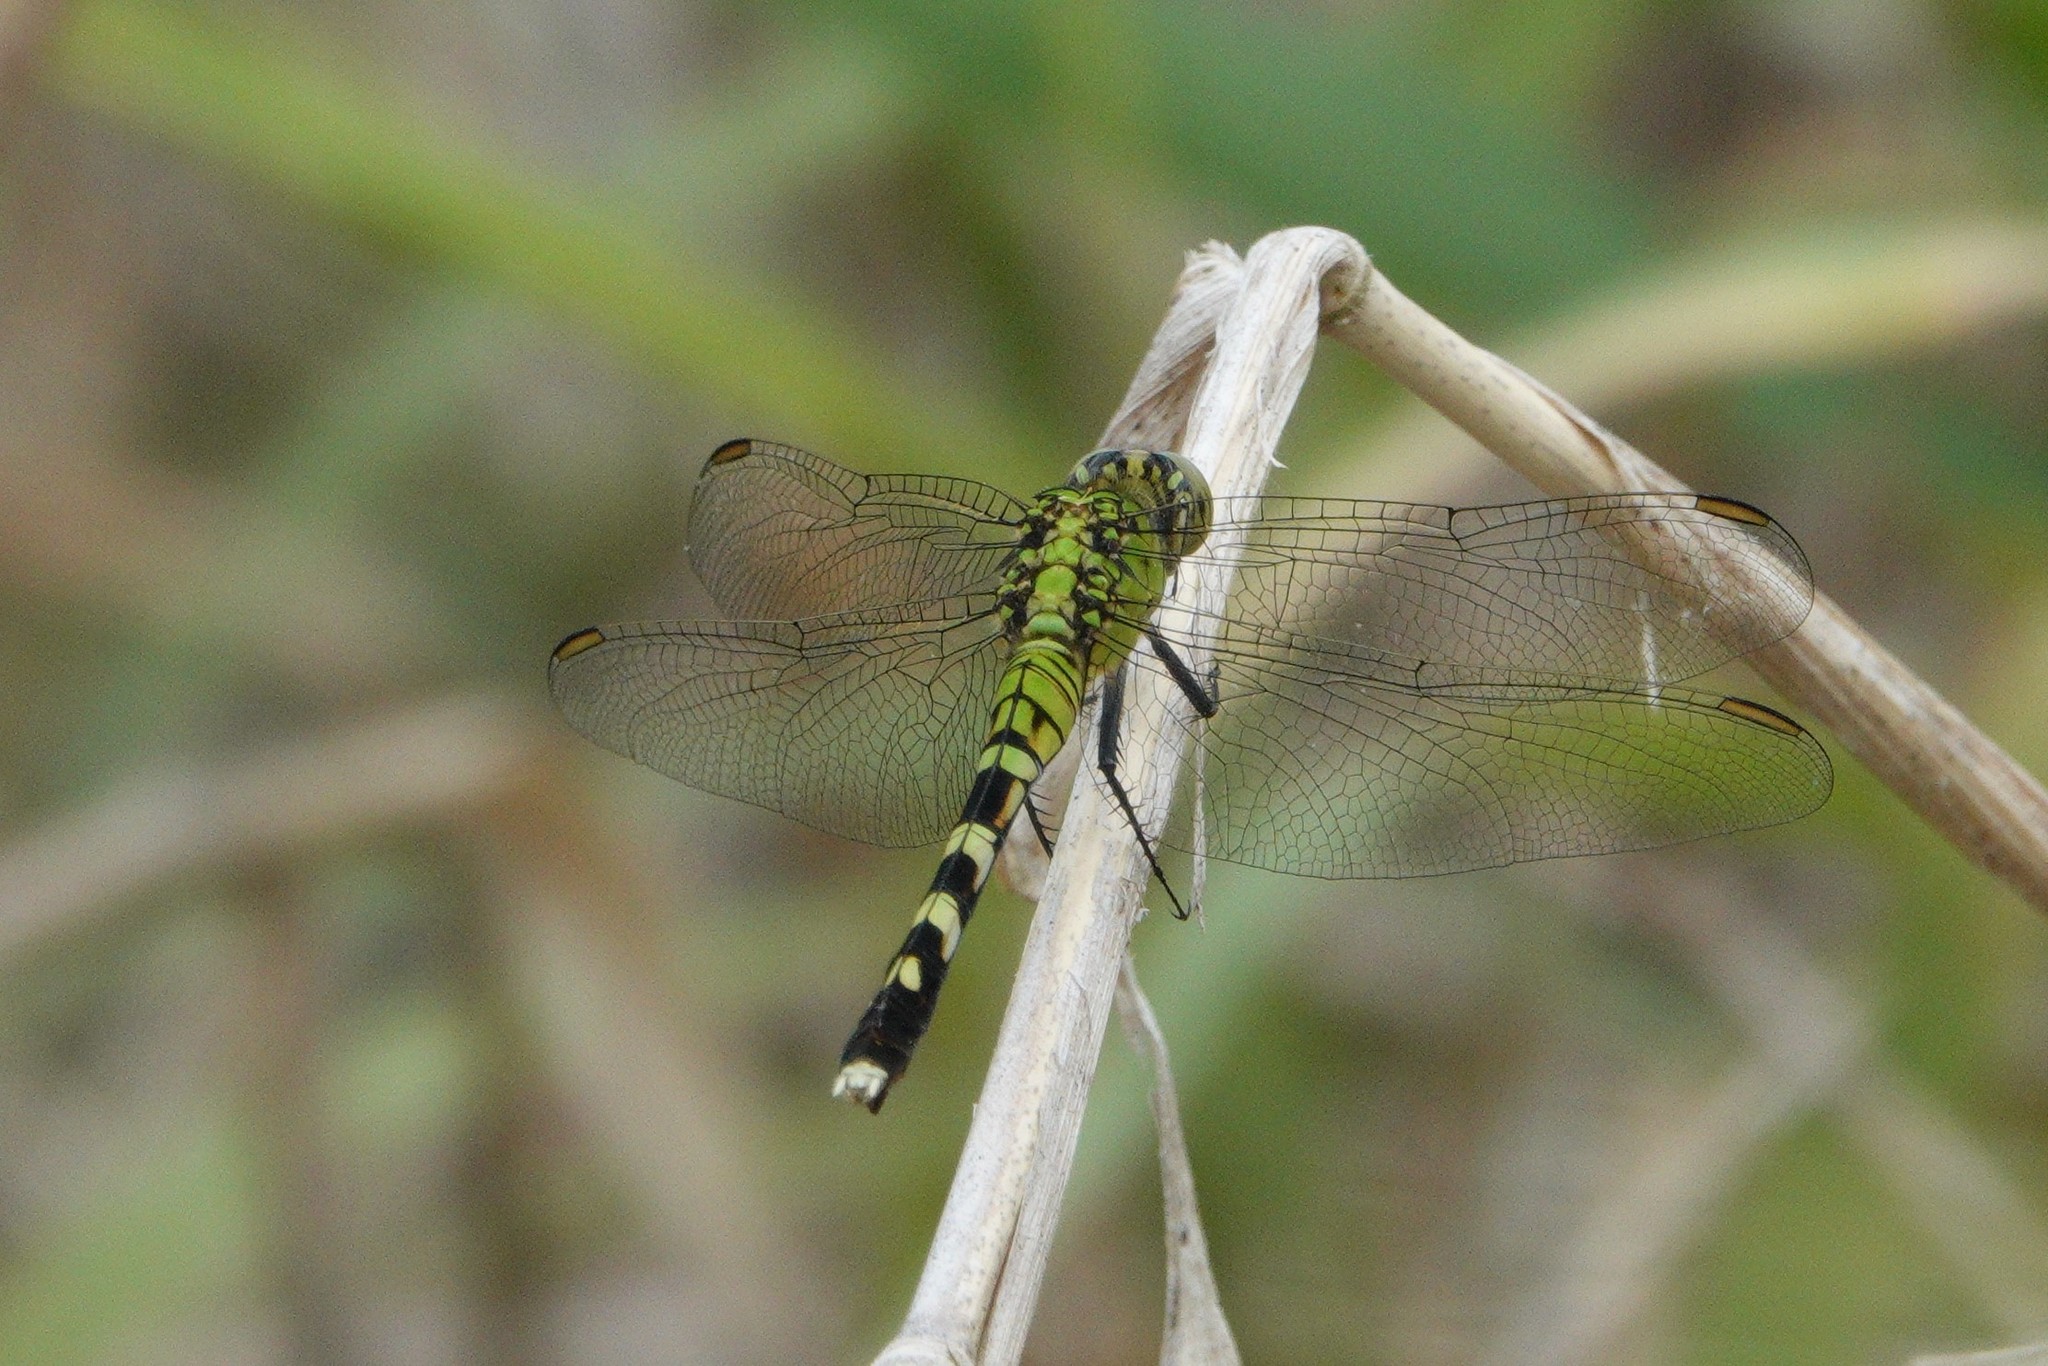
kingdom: Animalia
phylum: Arthropoda
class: Insecta
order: Odonata
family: Libellulidae
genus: Erythemis
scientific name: Erythemis simplicicollis
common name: Eastern pondhawk
